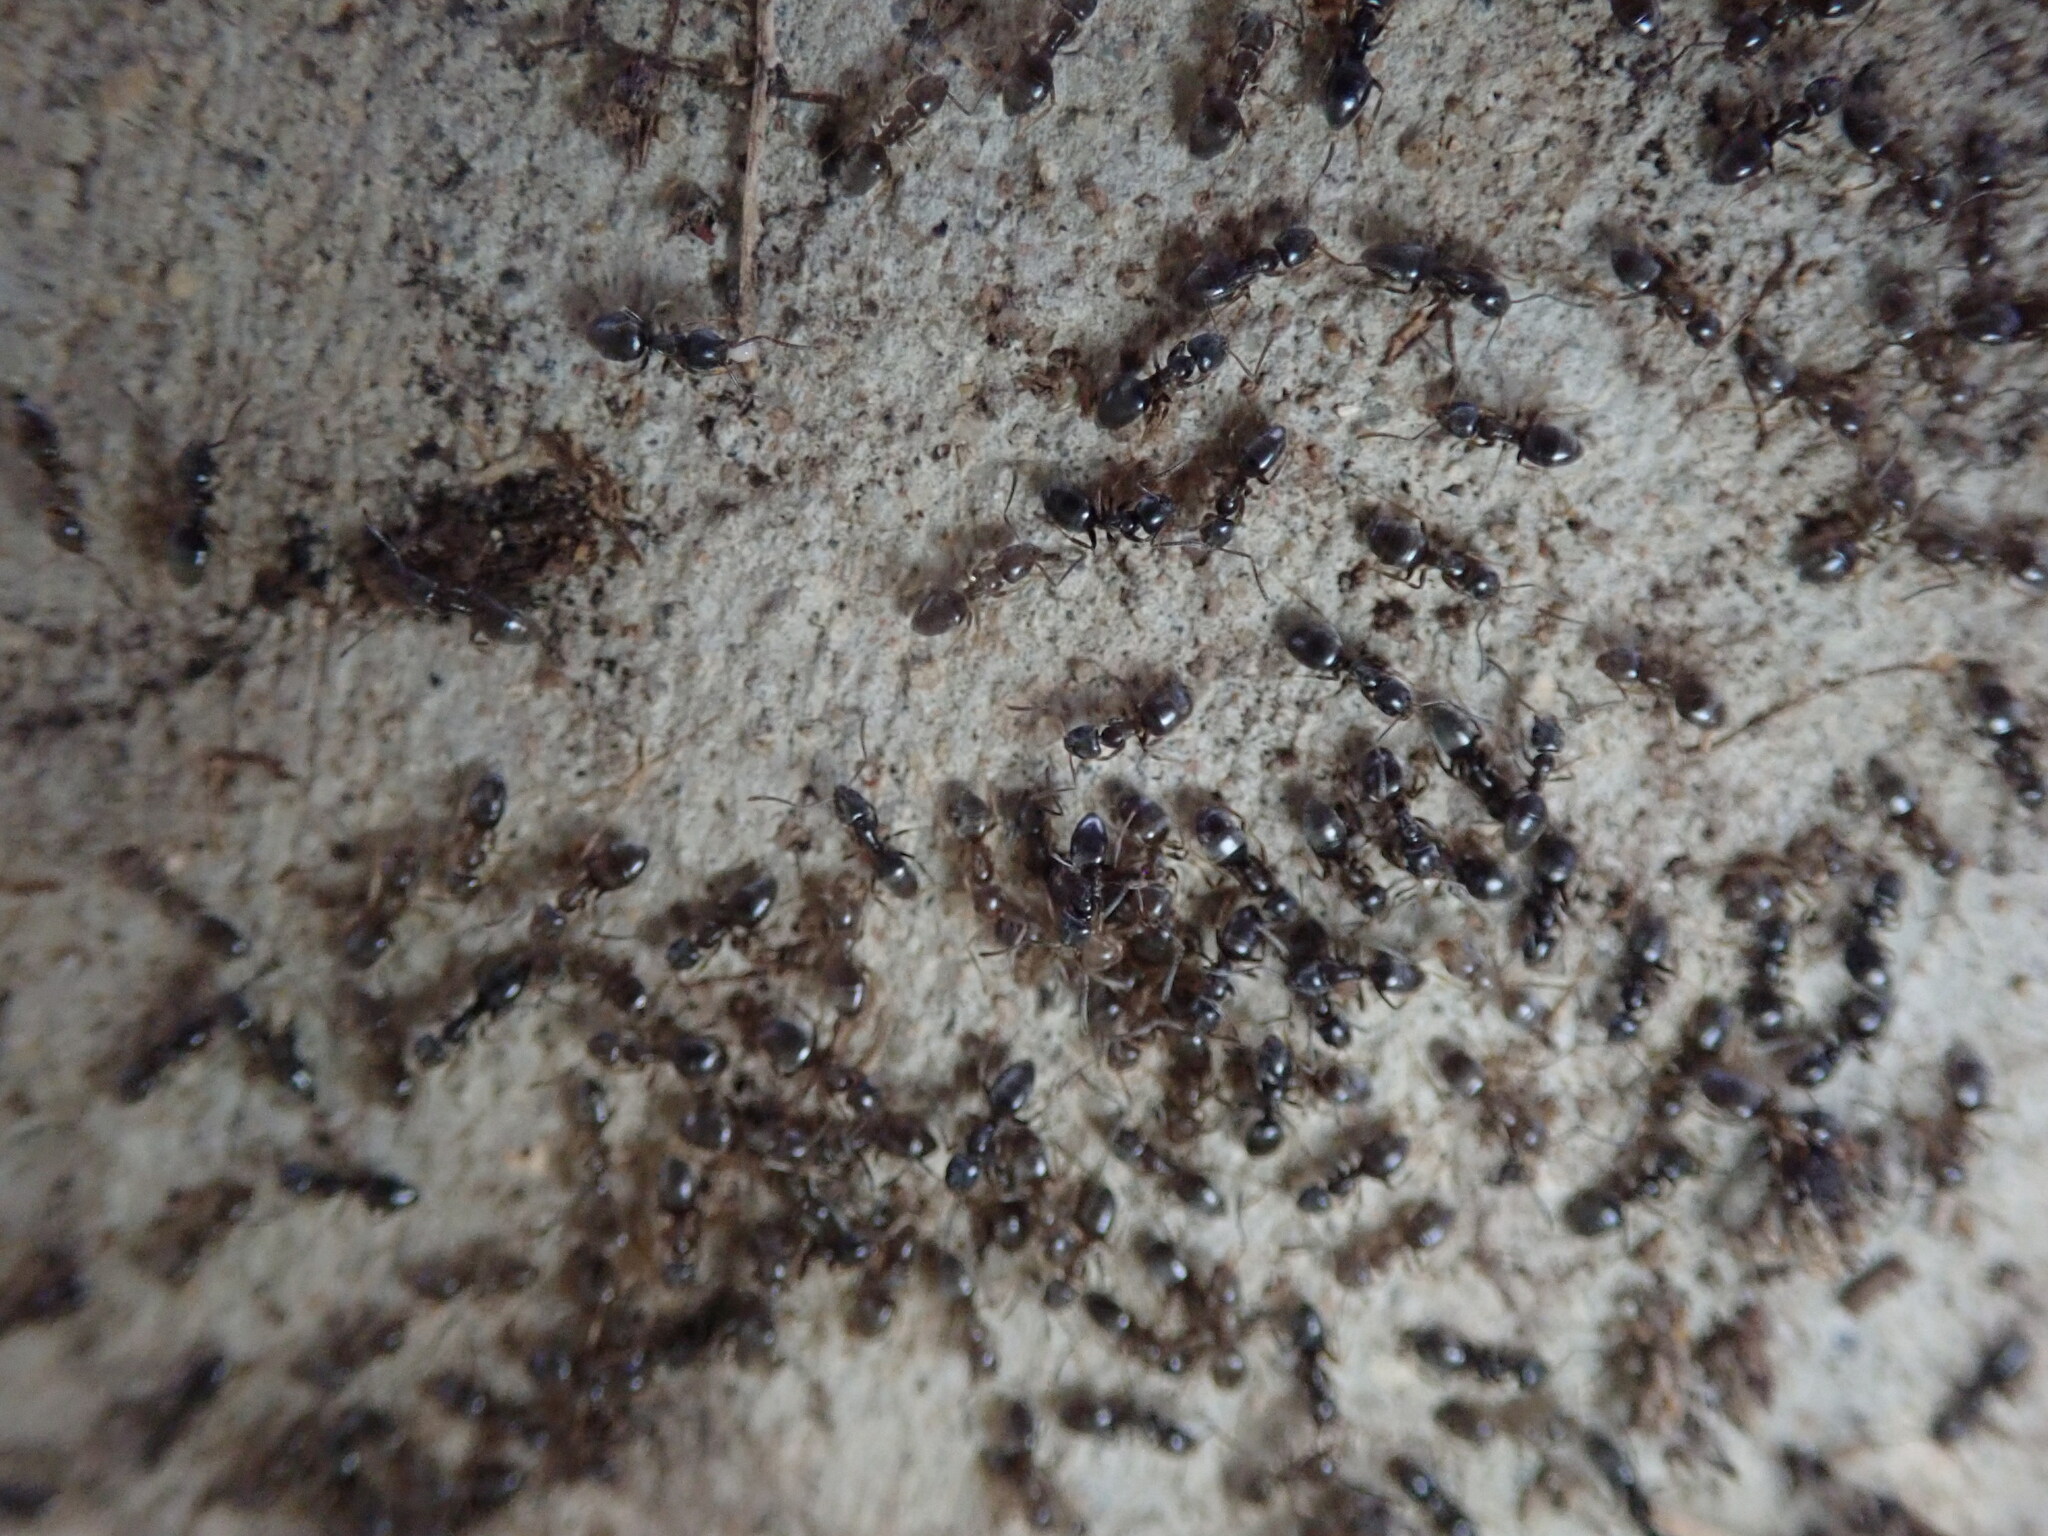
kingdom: Animalia
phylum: Arthropoda
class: Insecta
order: Hymenoptera
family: Formicidae
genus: Tapinoma
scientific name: Tapinoma sessile
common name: Odorous house ant
